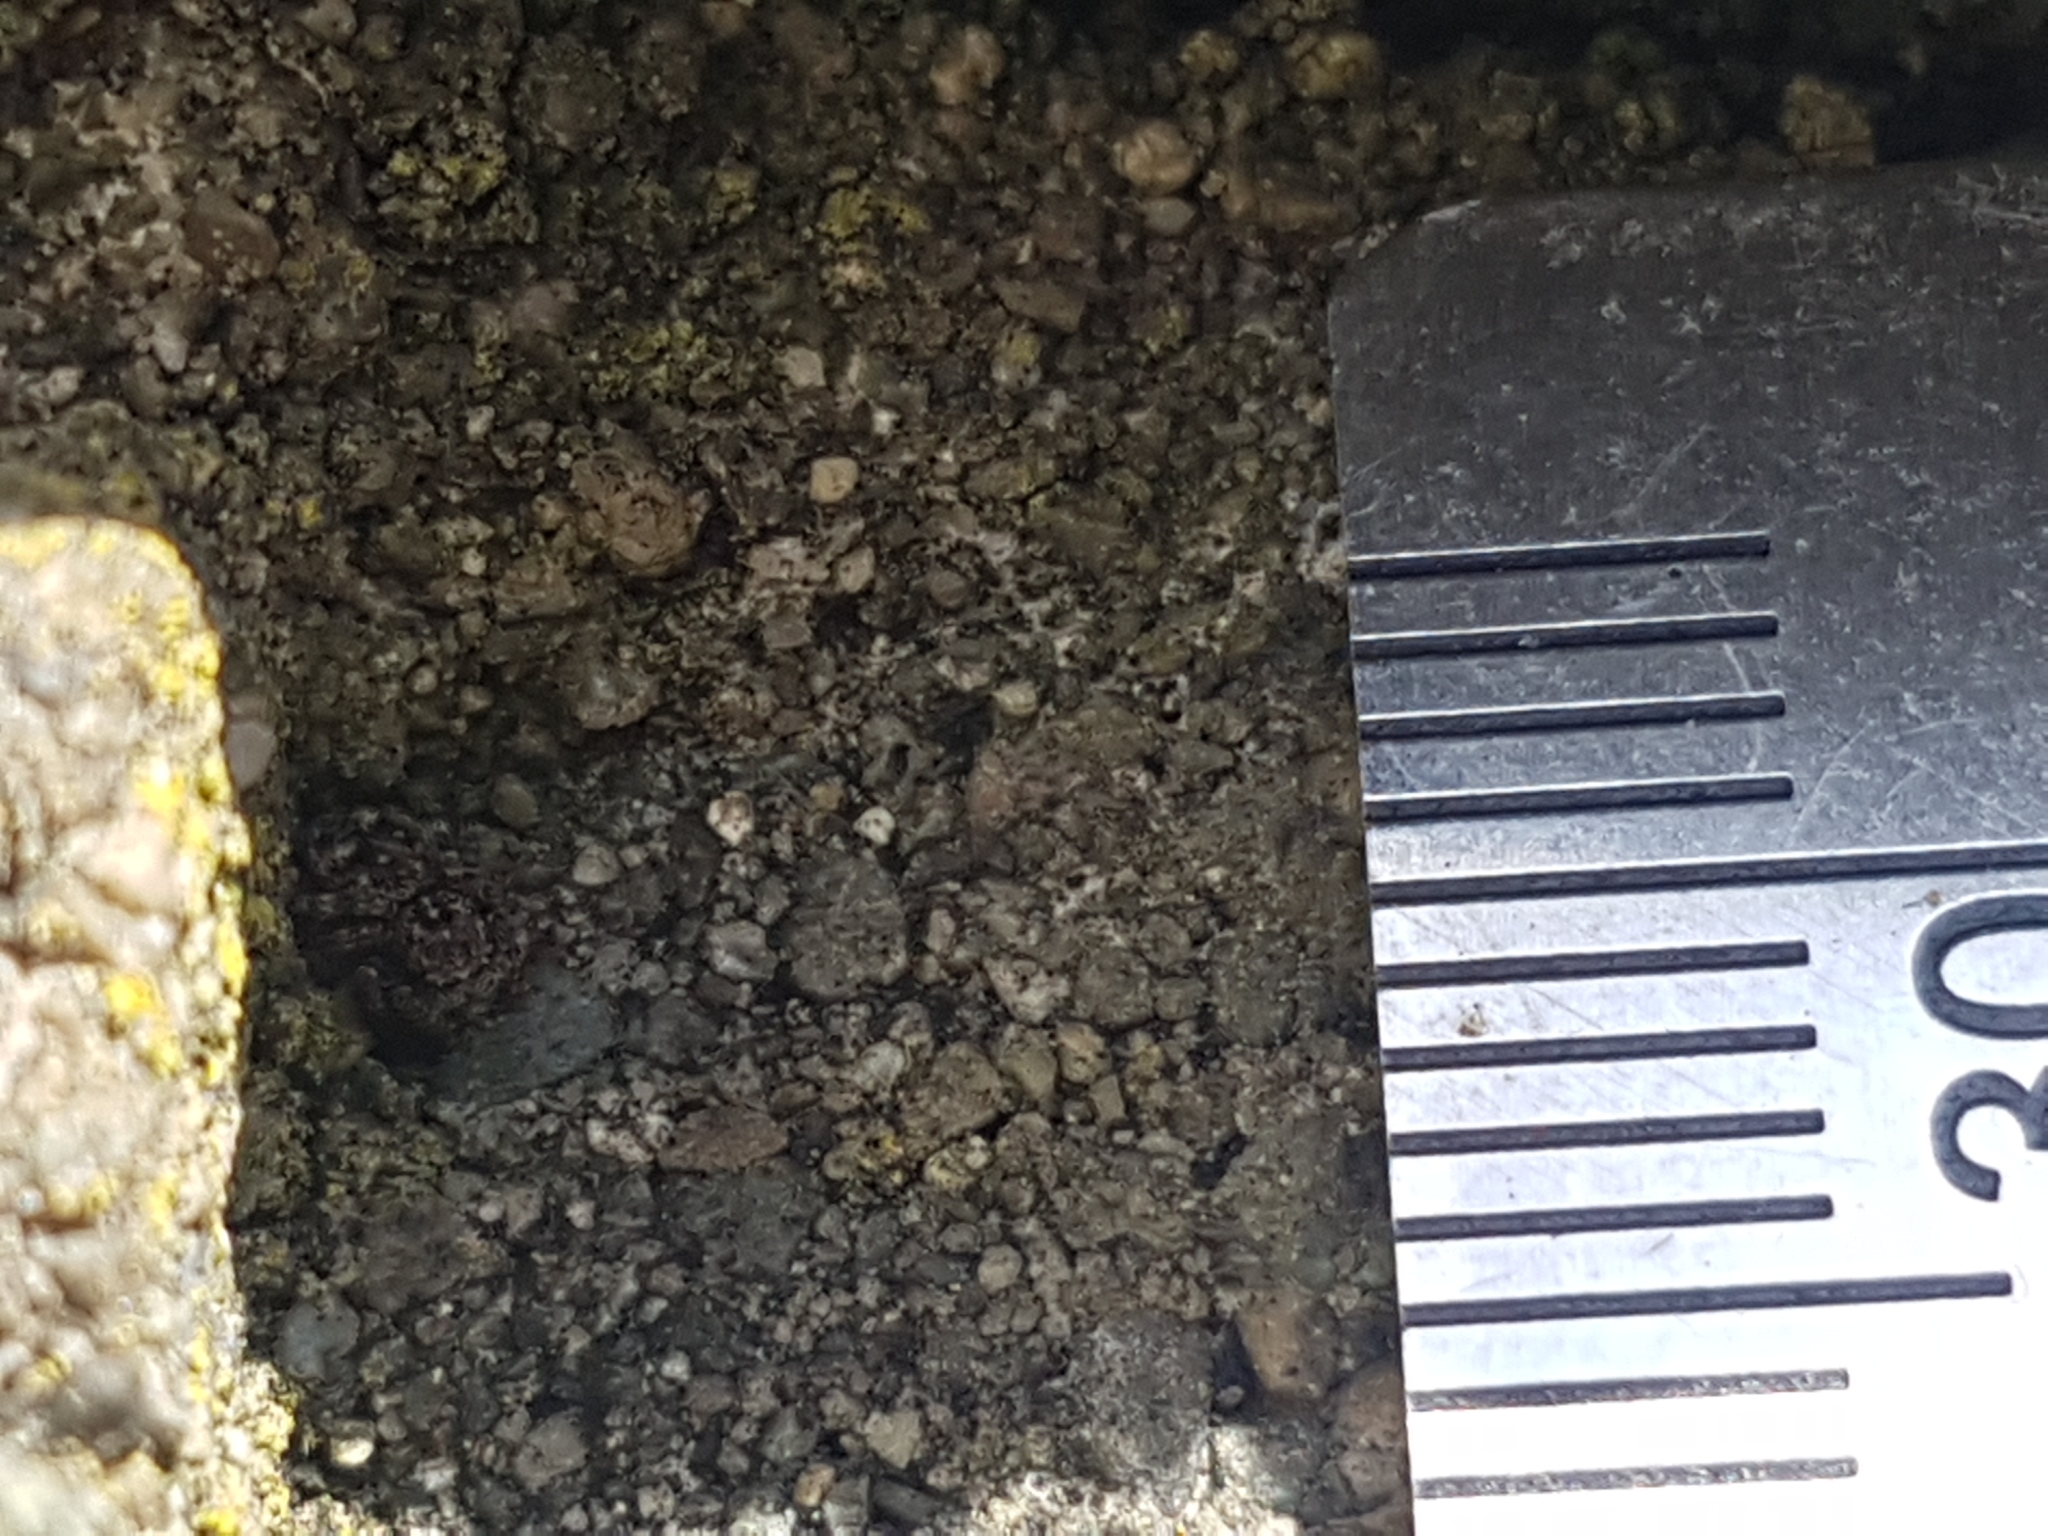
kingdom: Animalia
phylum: Arthropoda
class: Arachnida
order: Araneae
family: Salticidae
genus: Attulus
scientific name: Attulus pubescens
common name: Jumping spider
